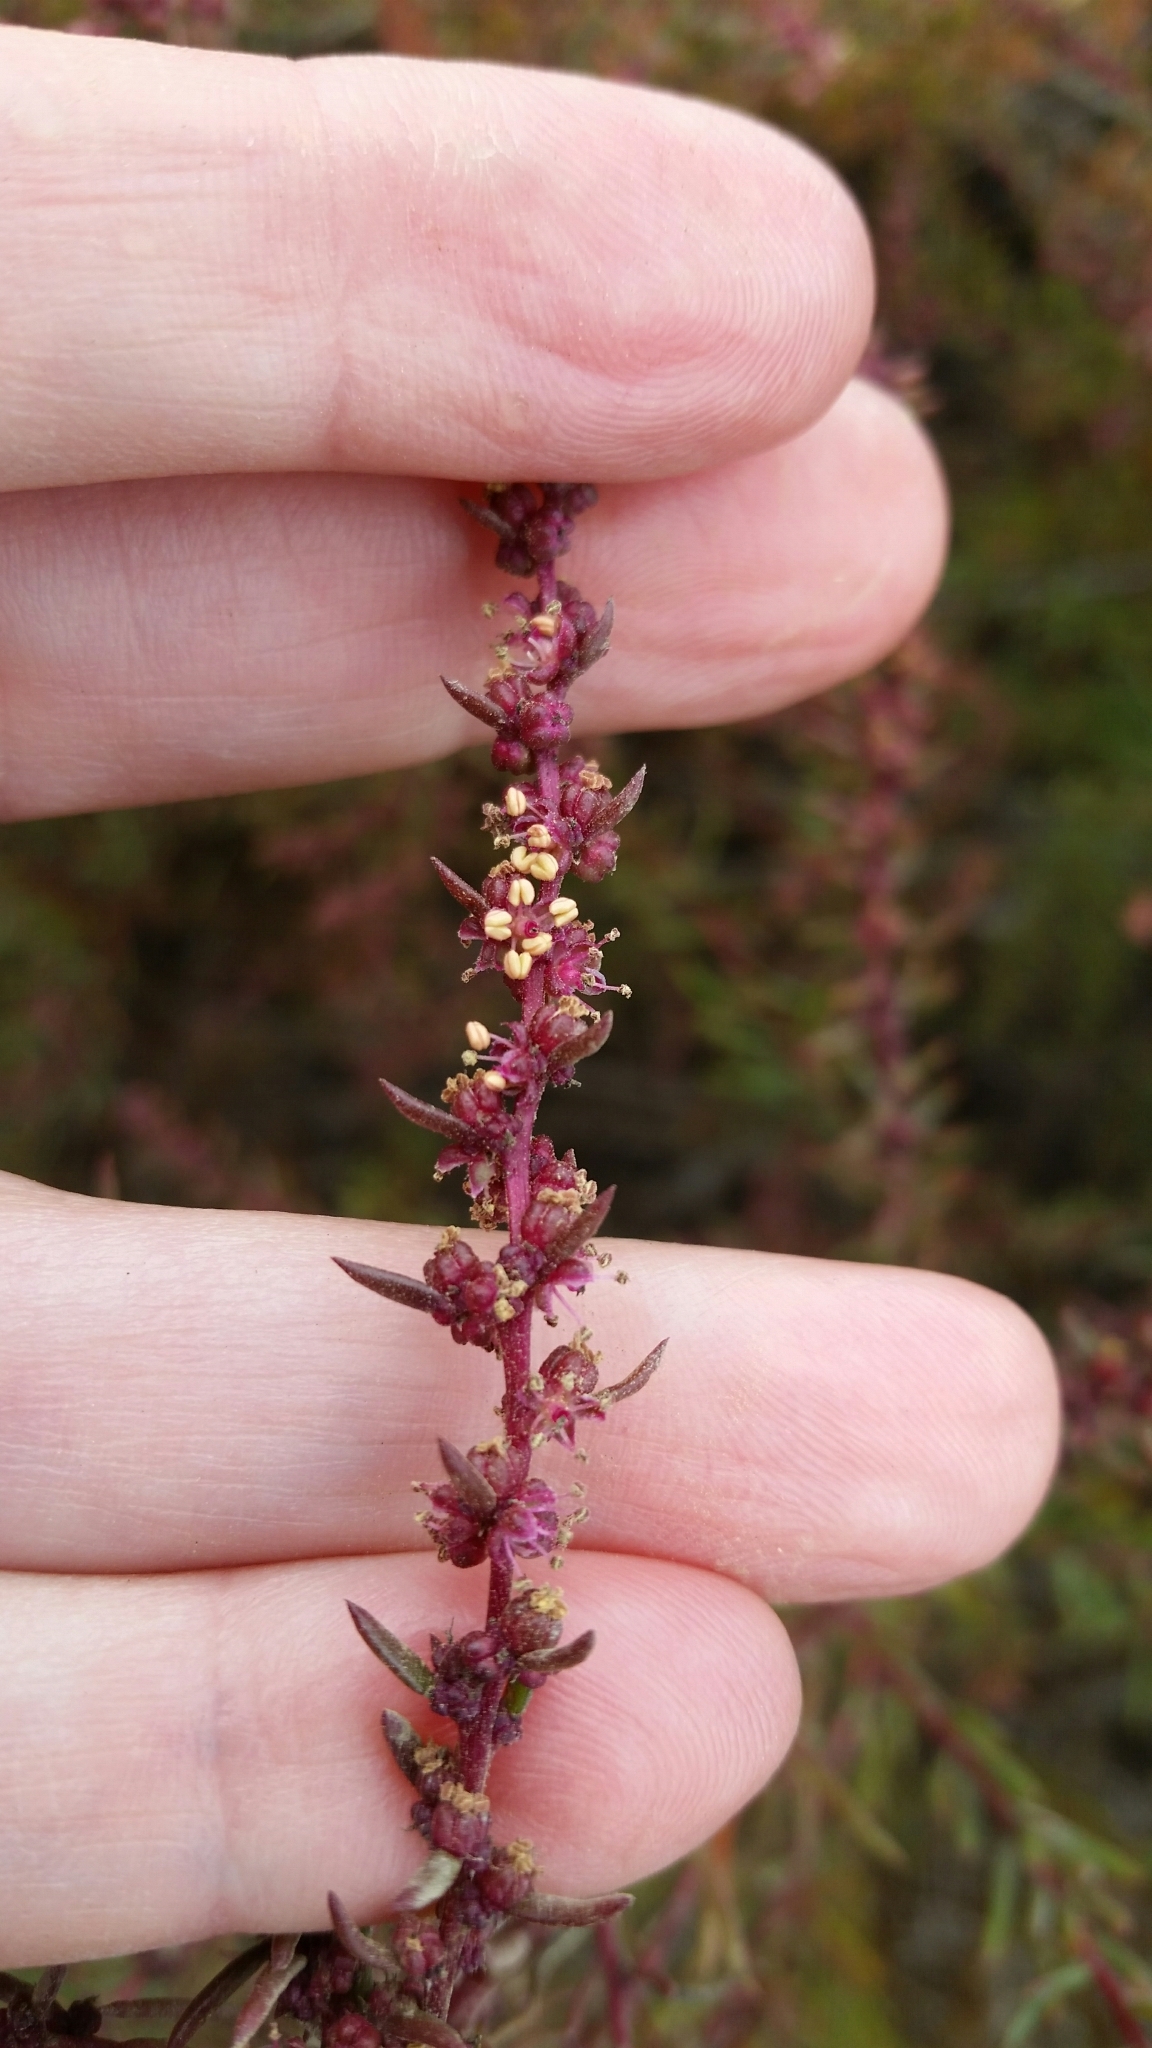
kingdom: Plantae
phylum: Tracheophyta
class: Magnoliopsida
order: Caryophyllales
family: Amaranthaceae
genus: Suaeda
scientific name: Suaeda nigra
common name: Bush seepweed
